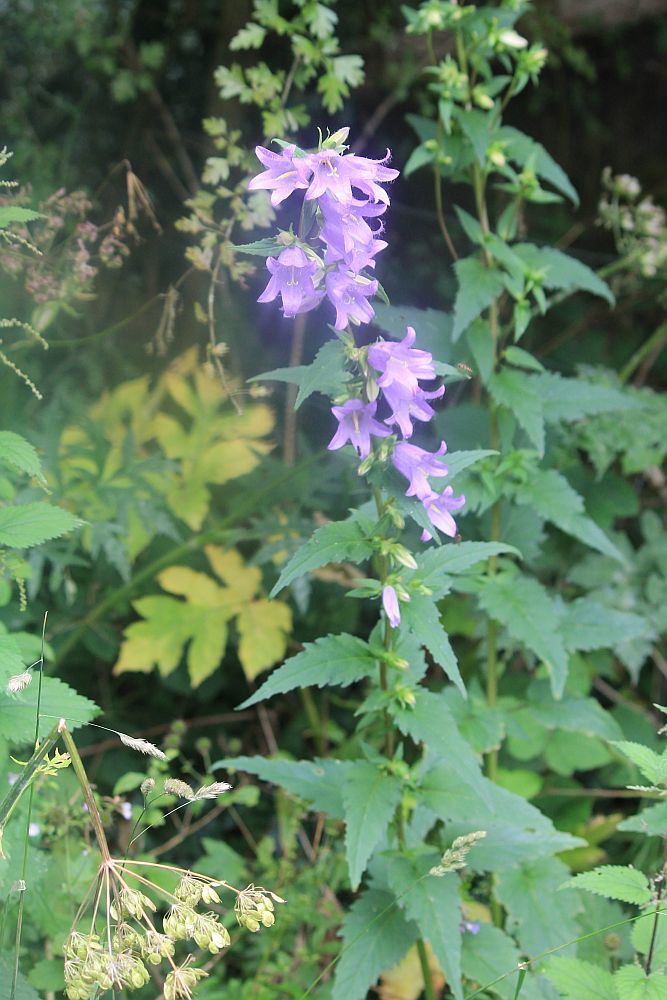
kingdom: Plantae
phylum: Tracheophyta
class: Magnoliopsida
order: Asterales
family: Campanulaceae
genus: Campanula
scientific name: Campanula trachelium
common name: Nettle-leaved bellflower
